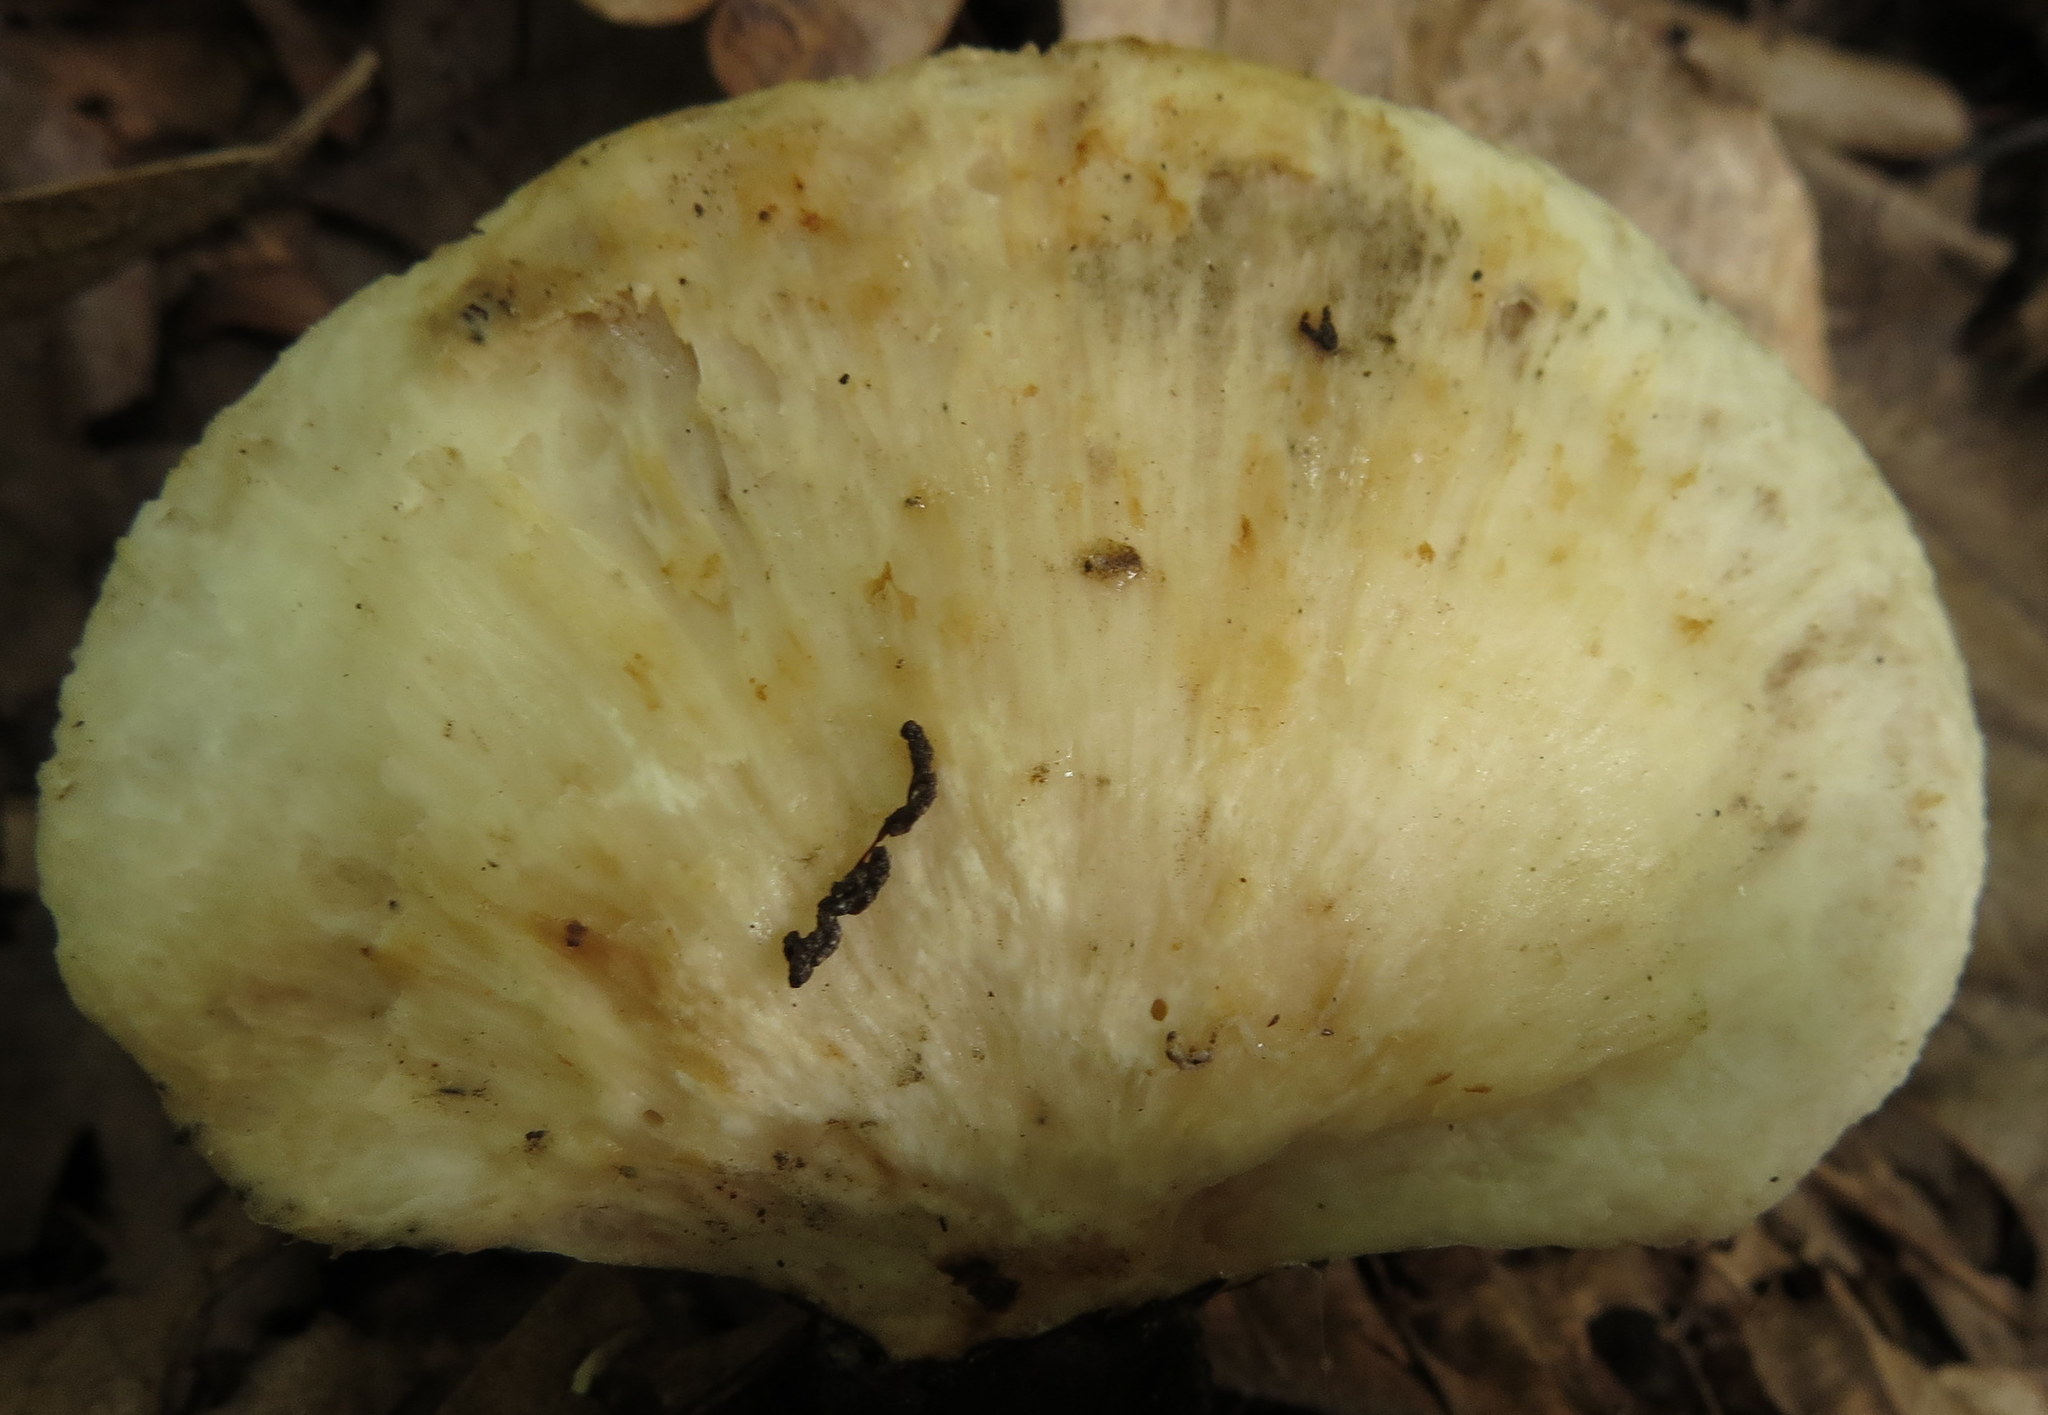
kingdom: Fungi
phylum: Basidiomycota
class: Agaricomycetes
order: Polyporales
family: Polyporaceae
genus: Neofavolus
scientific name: Neofavolus alveolaris
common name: Hexagonal-pored polypore
